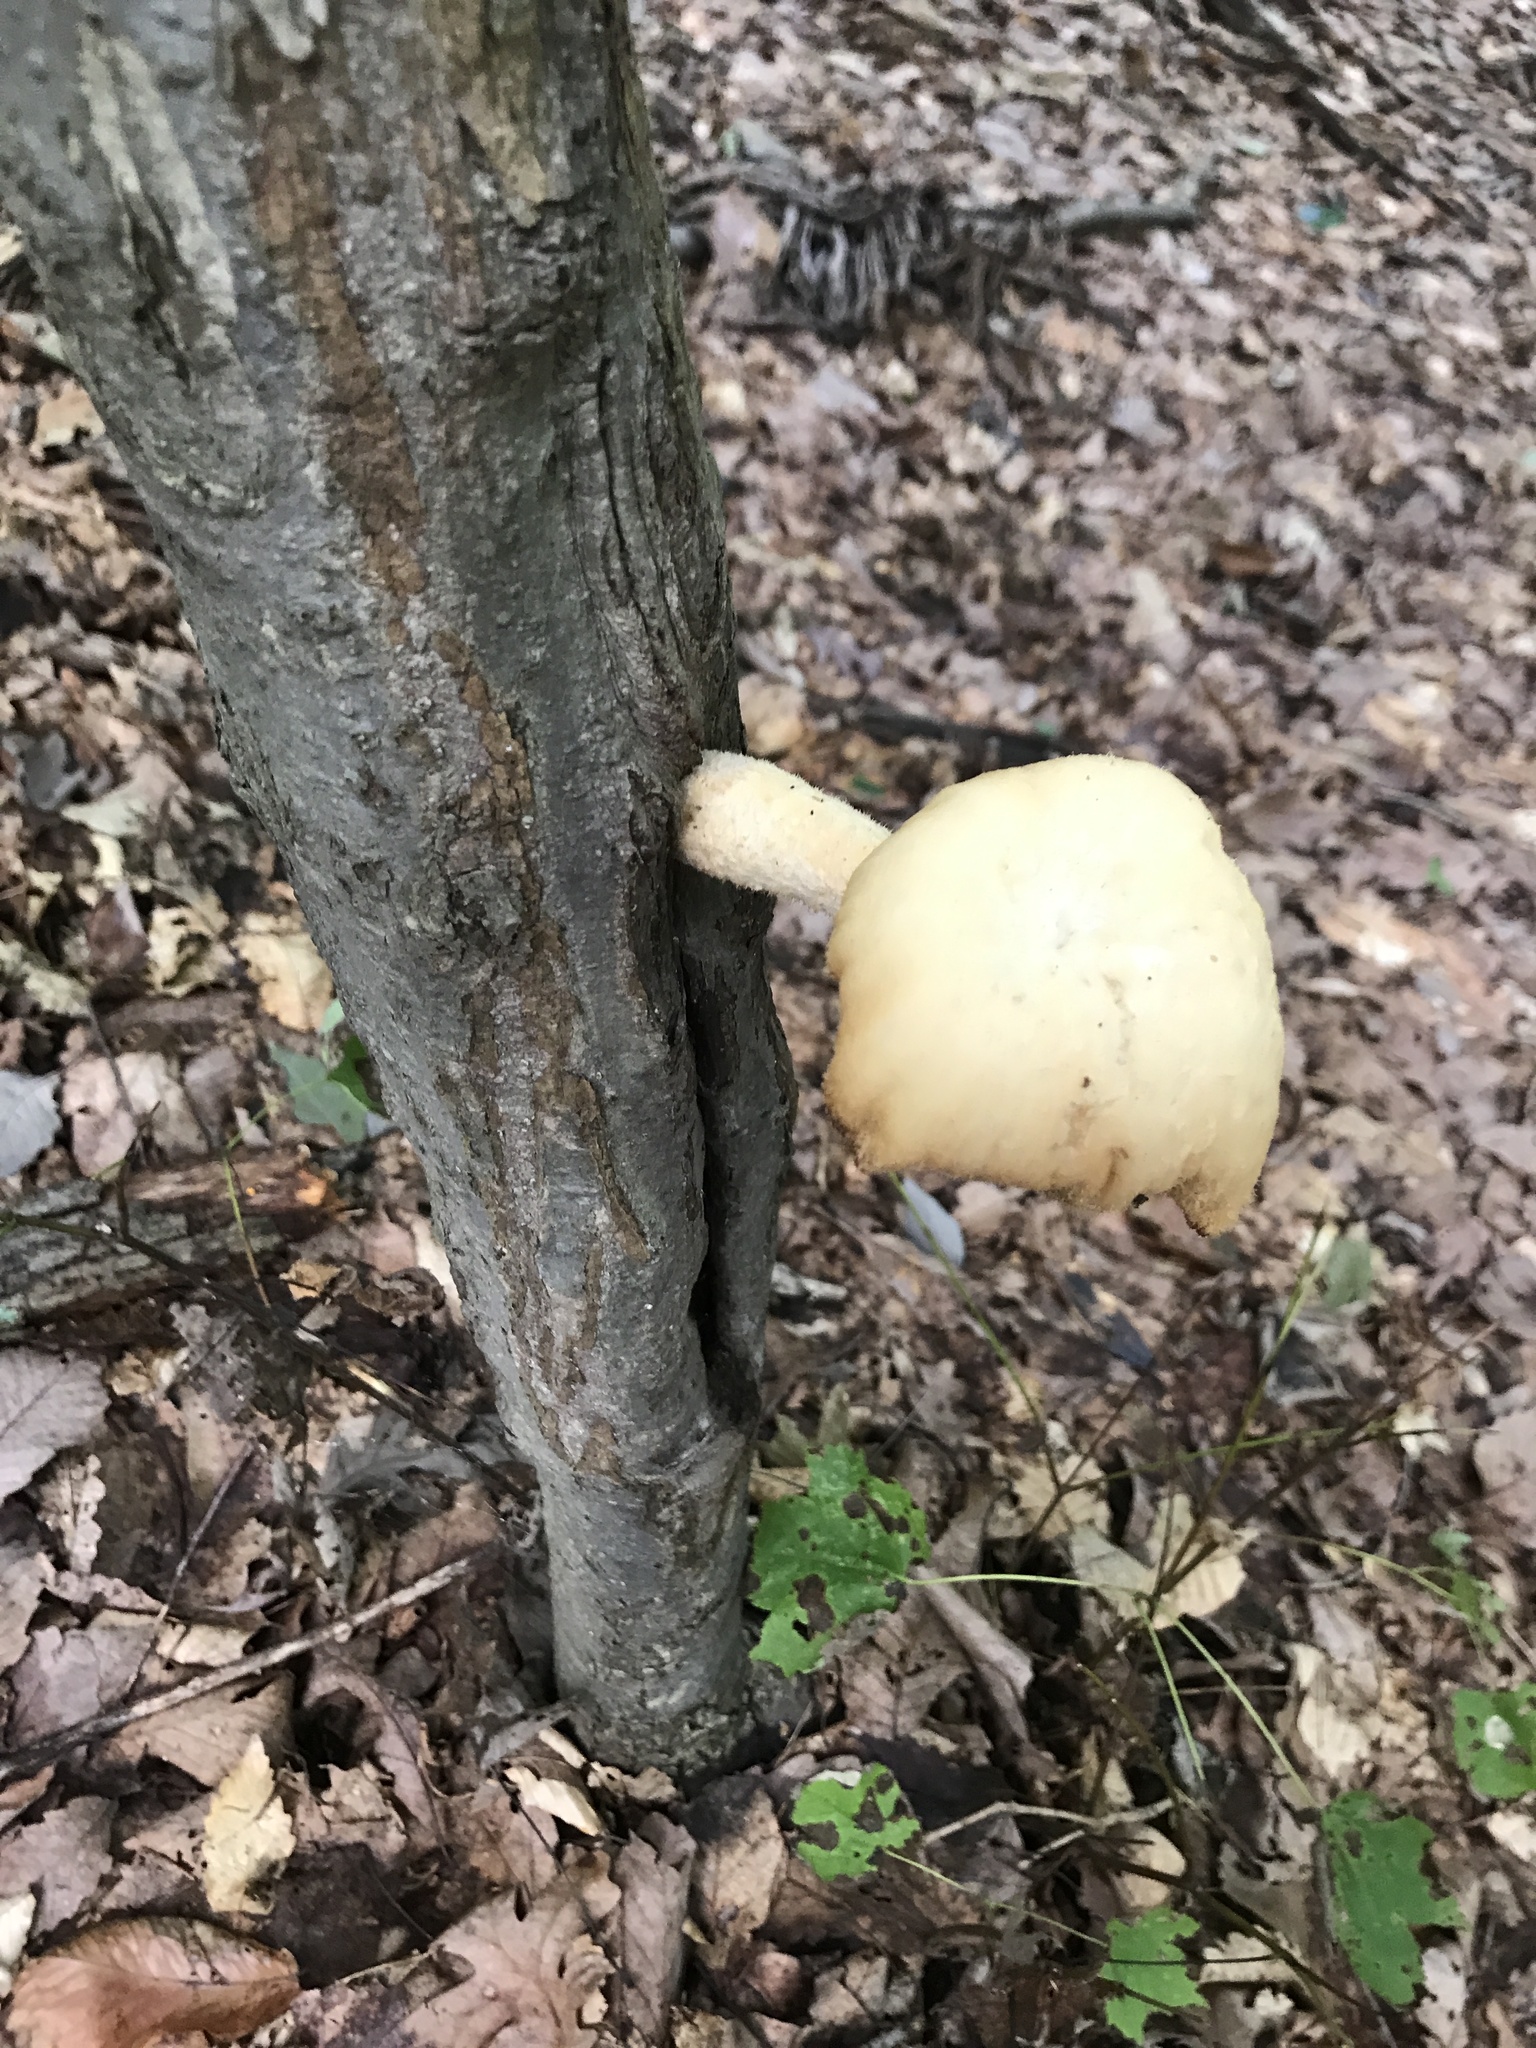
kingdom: Fungi
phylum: Basidiomycota
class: Agaricomycetes
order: Polyporales
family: Polyporaceae
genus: Lentinus
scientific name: Lentinus levis
